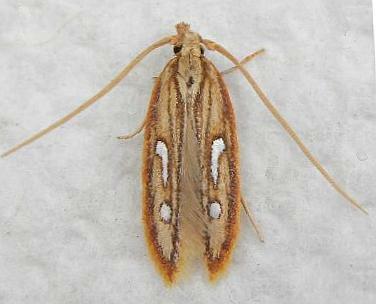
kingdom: Animalia
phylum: Arthropoda
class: Insecta
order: Lepidoptera
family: Coleophoridae
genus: Homaledra
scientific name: Homaledra heptathalama
